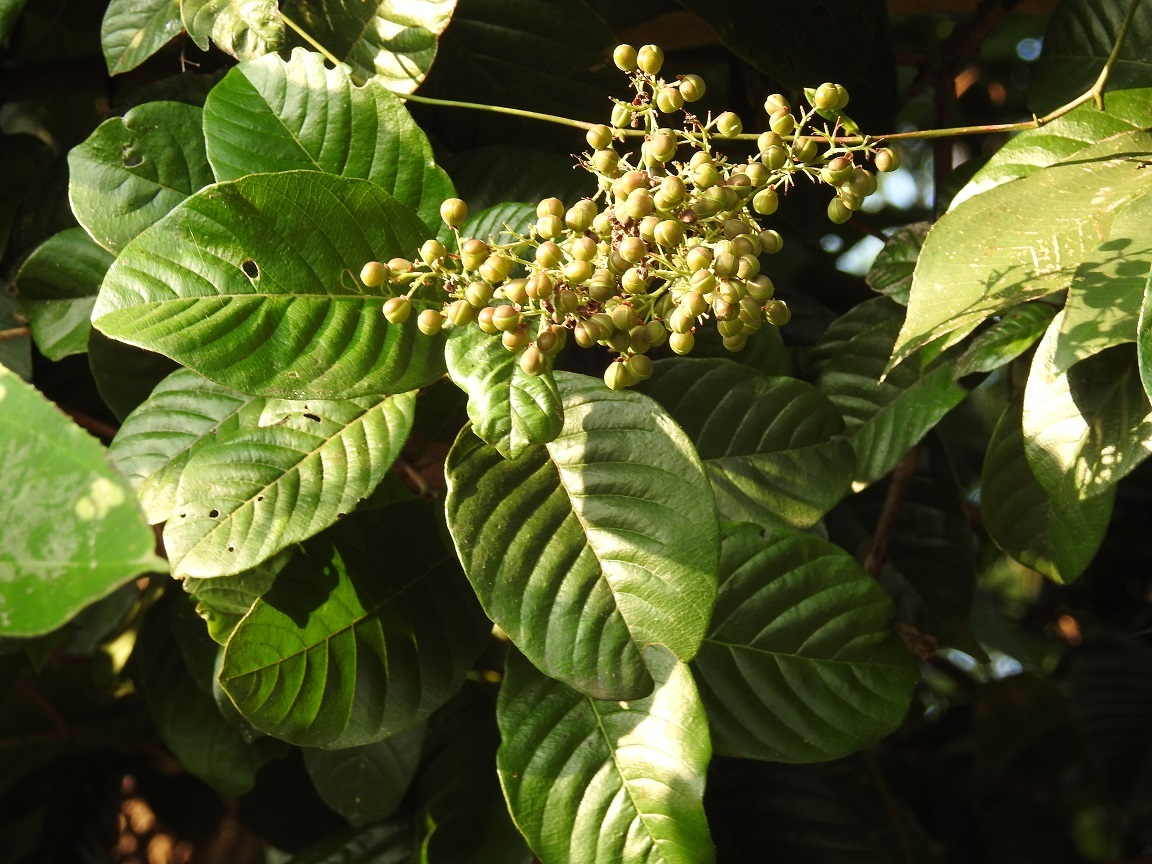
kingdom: Plantae
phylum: Tracheophyta
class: Magnoliopsida
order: Dilleniales
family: Dilleniaceae
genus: Davilla
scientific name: Davilla kunthii
